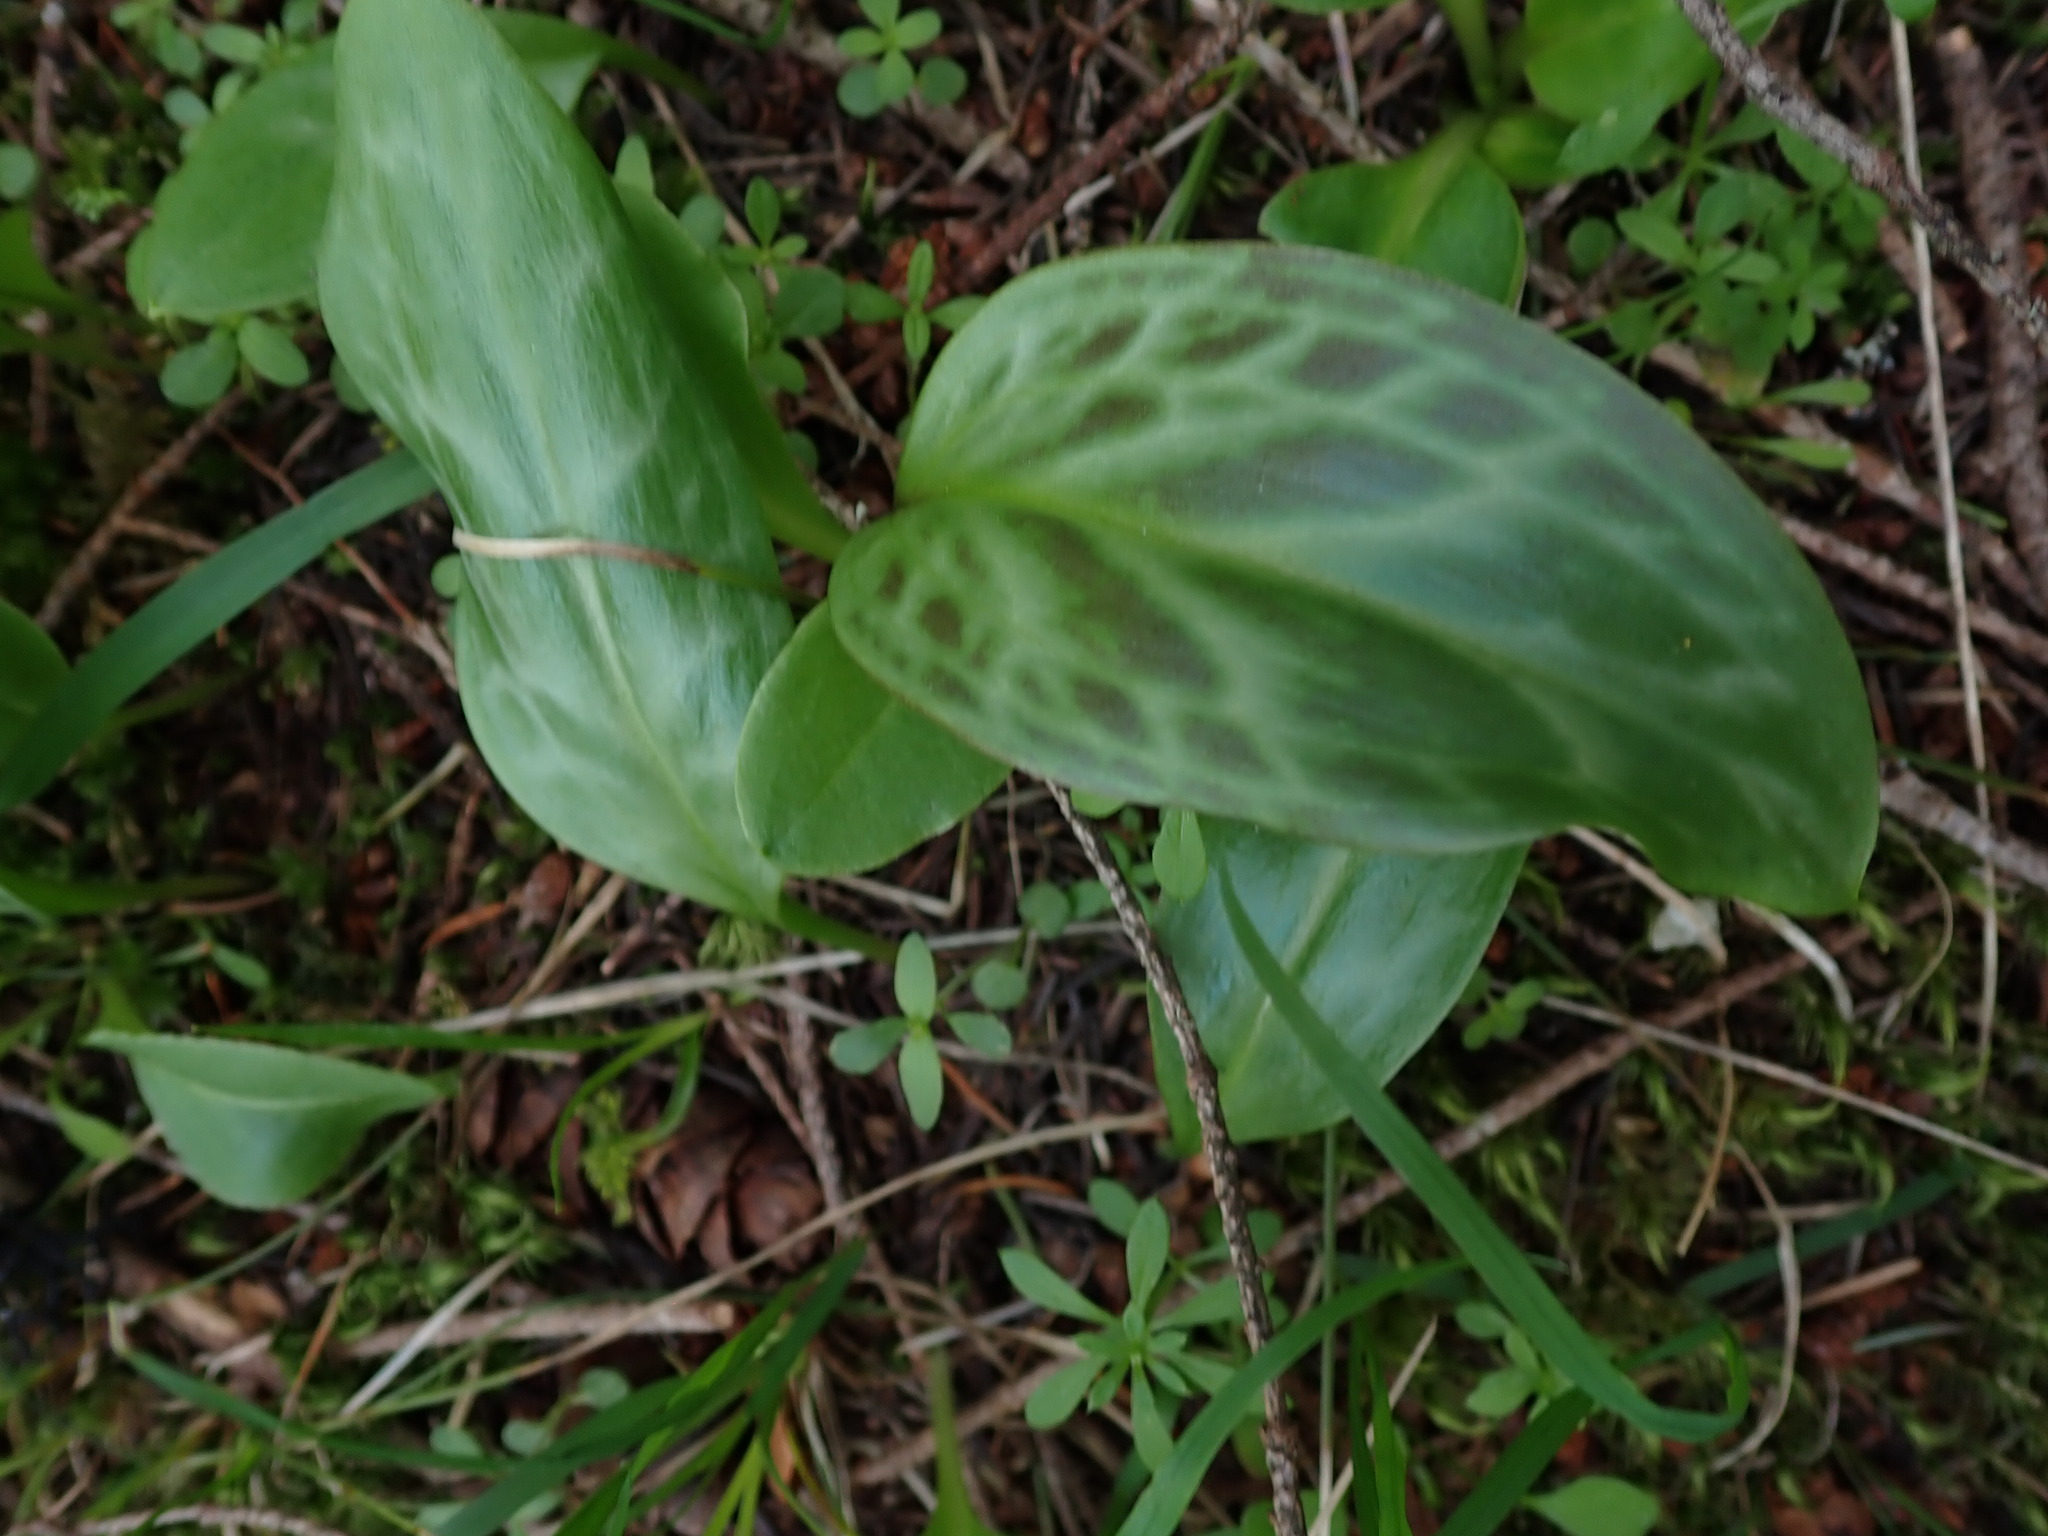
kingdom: Plantae
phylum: Tracheophyta
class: Liliopsida
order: Liliales
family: Liliaceae
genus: Erythronium
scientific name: Erythronium oregonum
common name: Giant adder's-tongue
